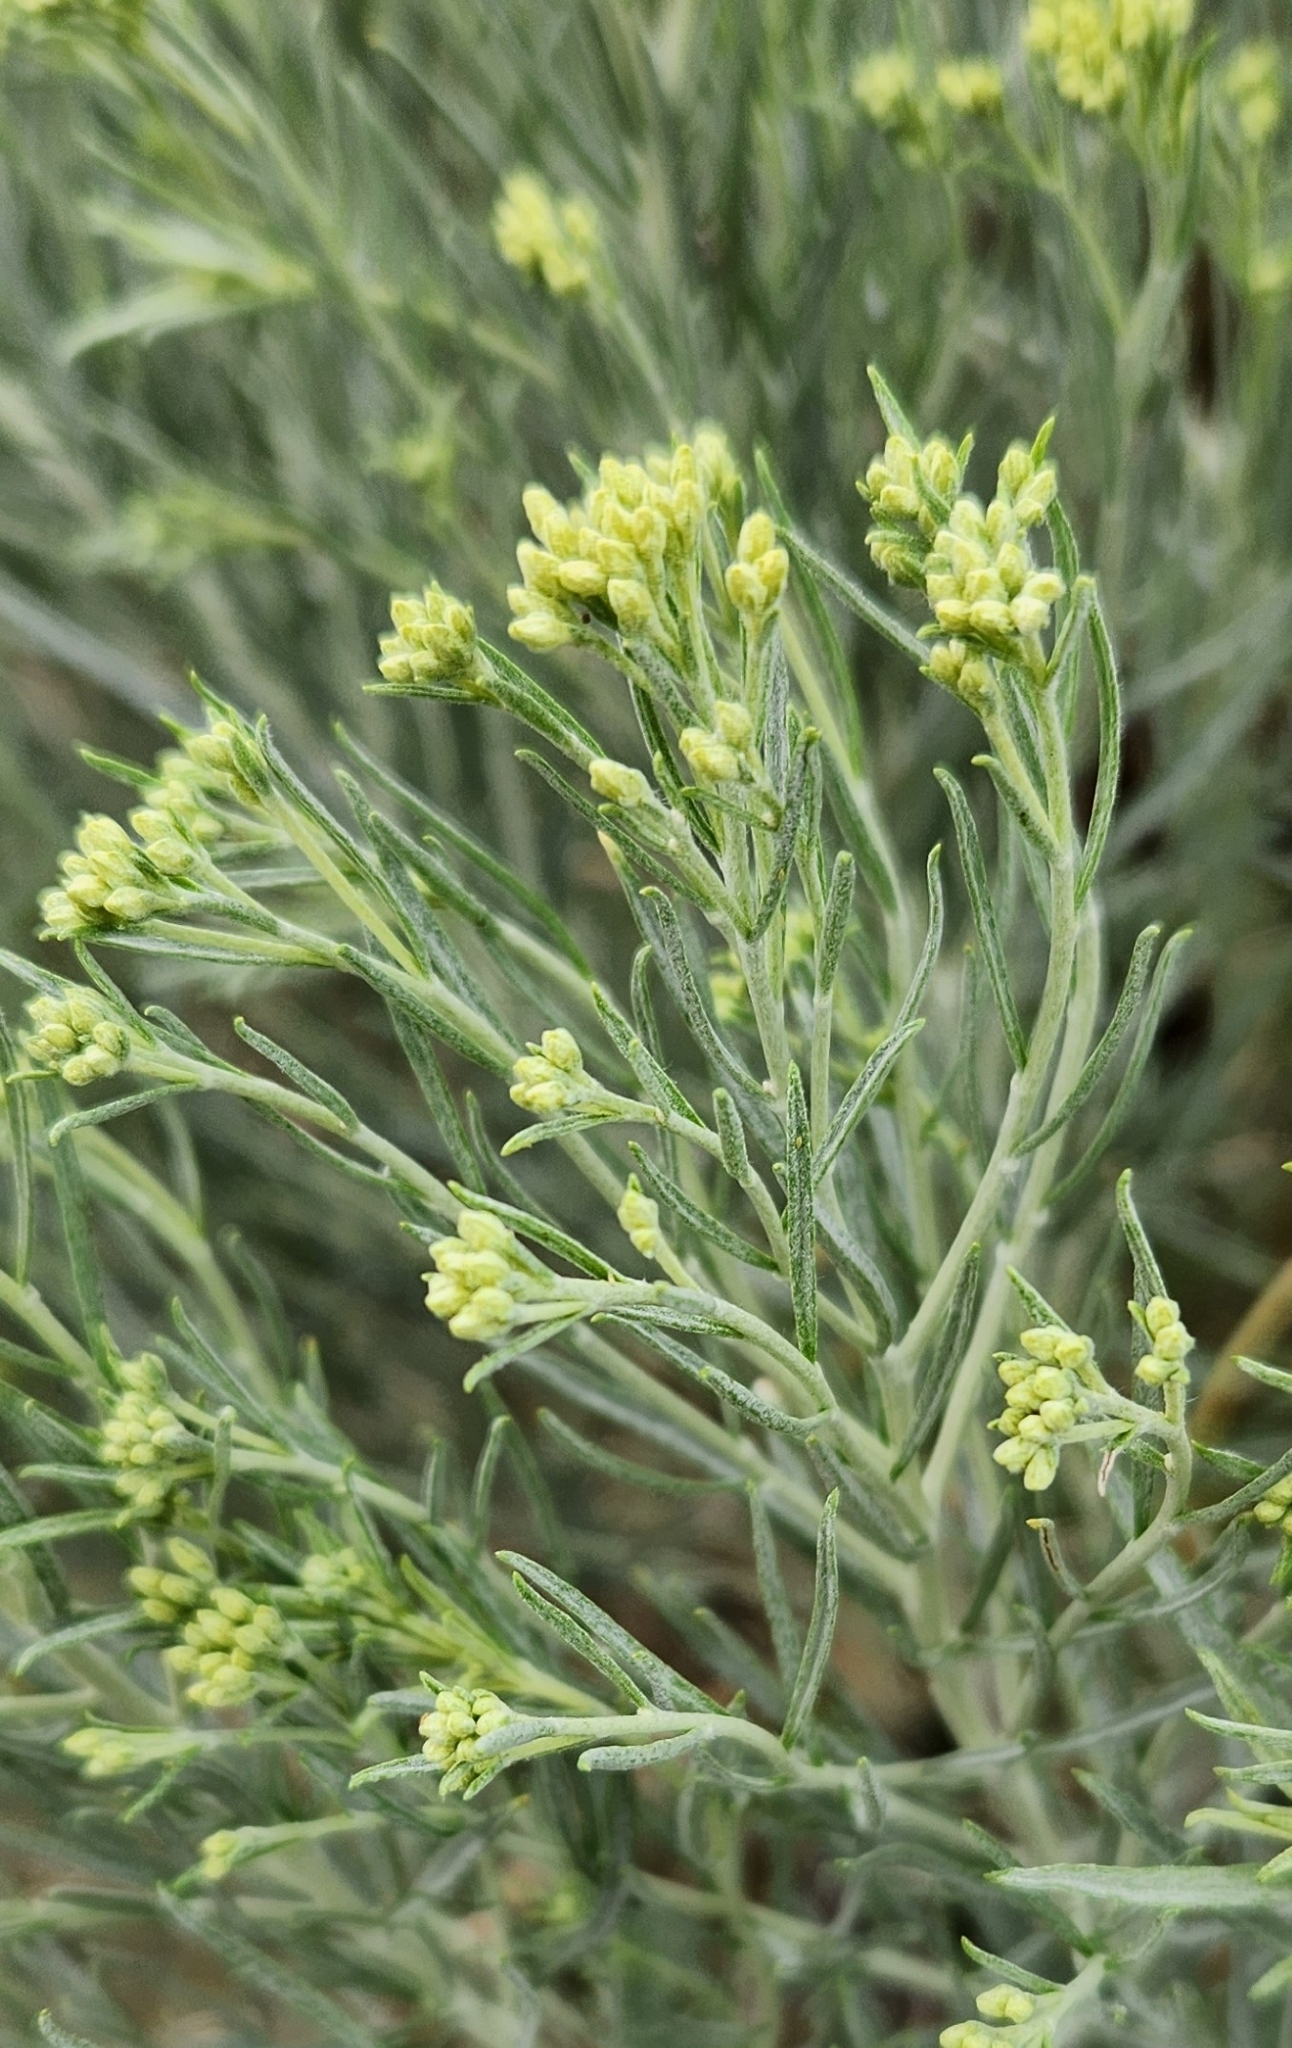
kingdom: Plantae
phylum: Tracheophyta
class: Magnoliopsida
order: Asterales
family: Asteraceae
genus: Ericameria
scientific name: Ericameria nauseosa
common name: Rubber rabbitbrush
